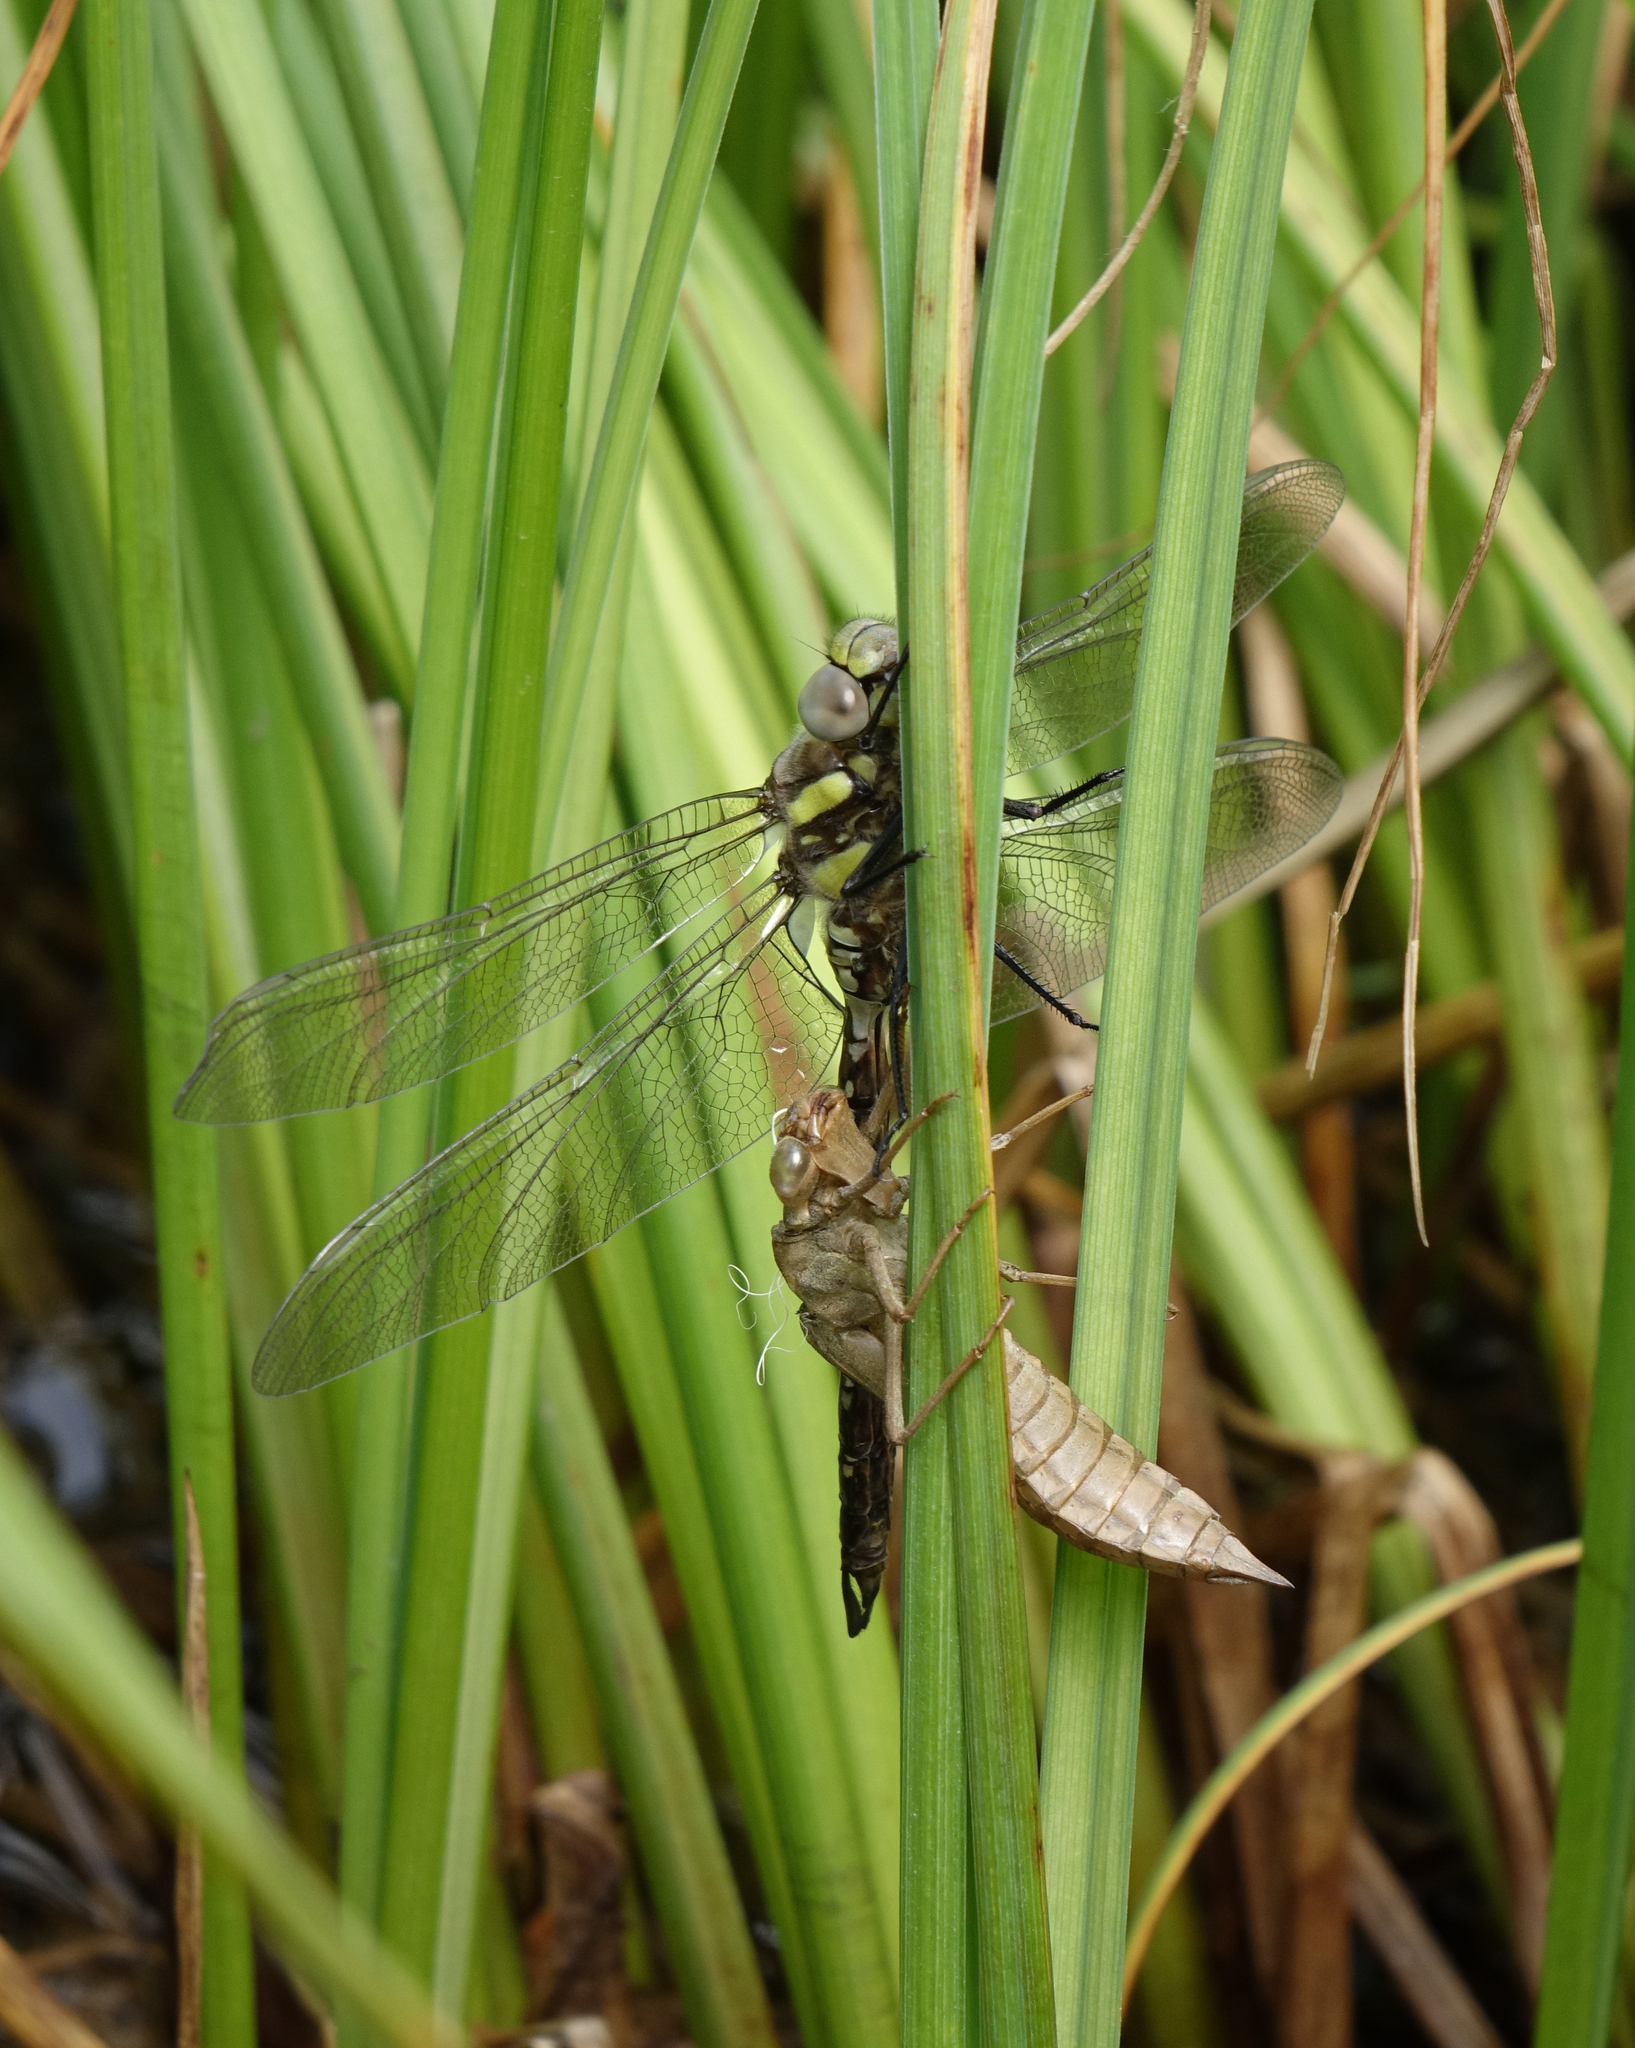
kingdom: Animalia
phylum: Arthropoda
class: Insecta
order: Odonata
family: Aeshnidae
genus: Aeshna
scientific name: Aeshna juncea
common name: Moorland hawker
